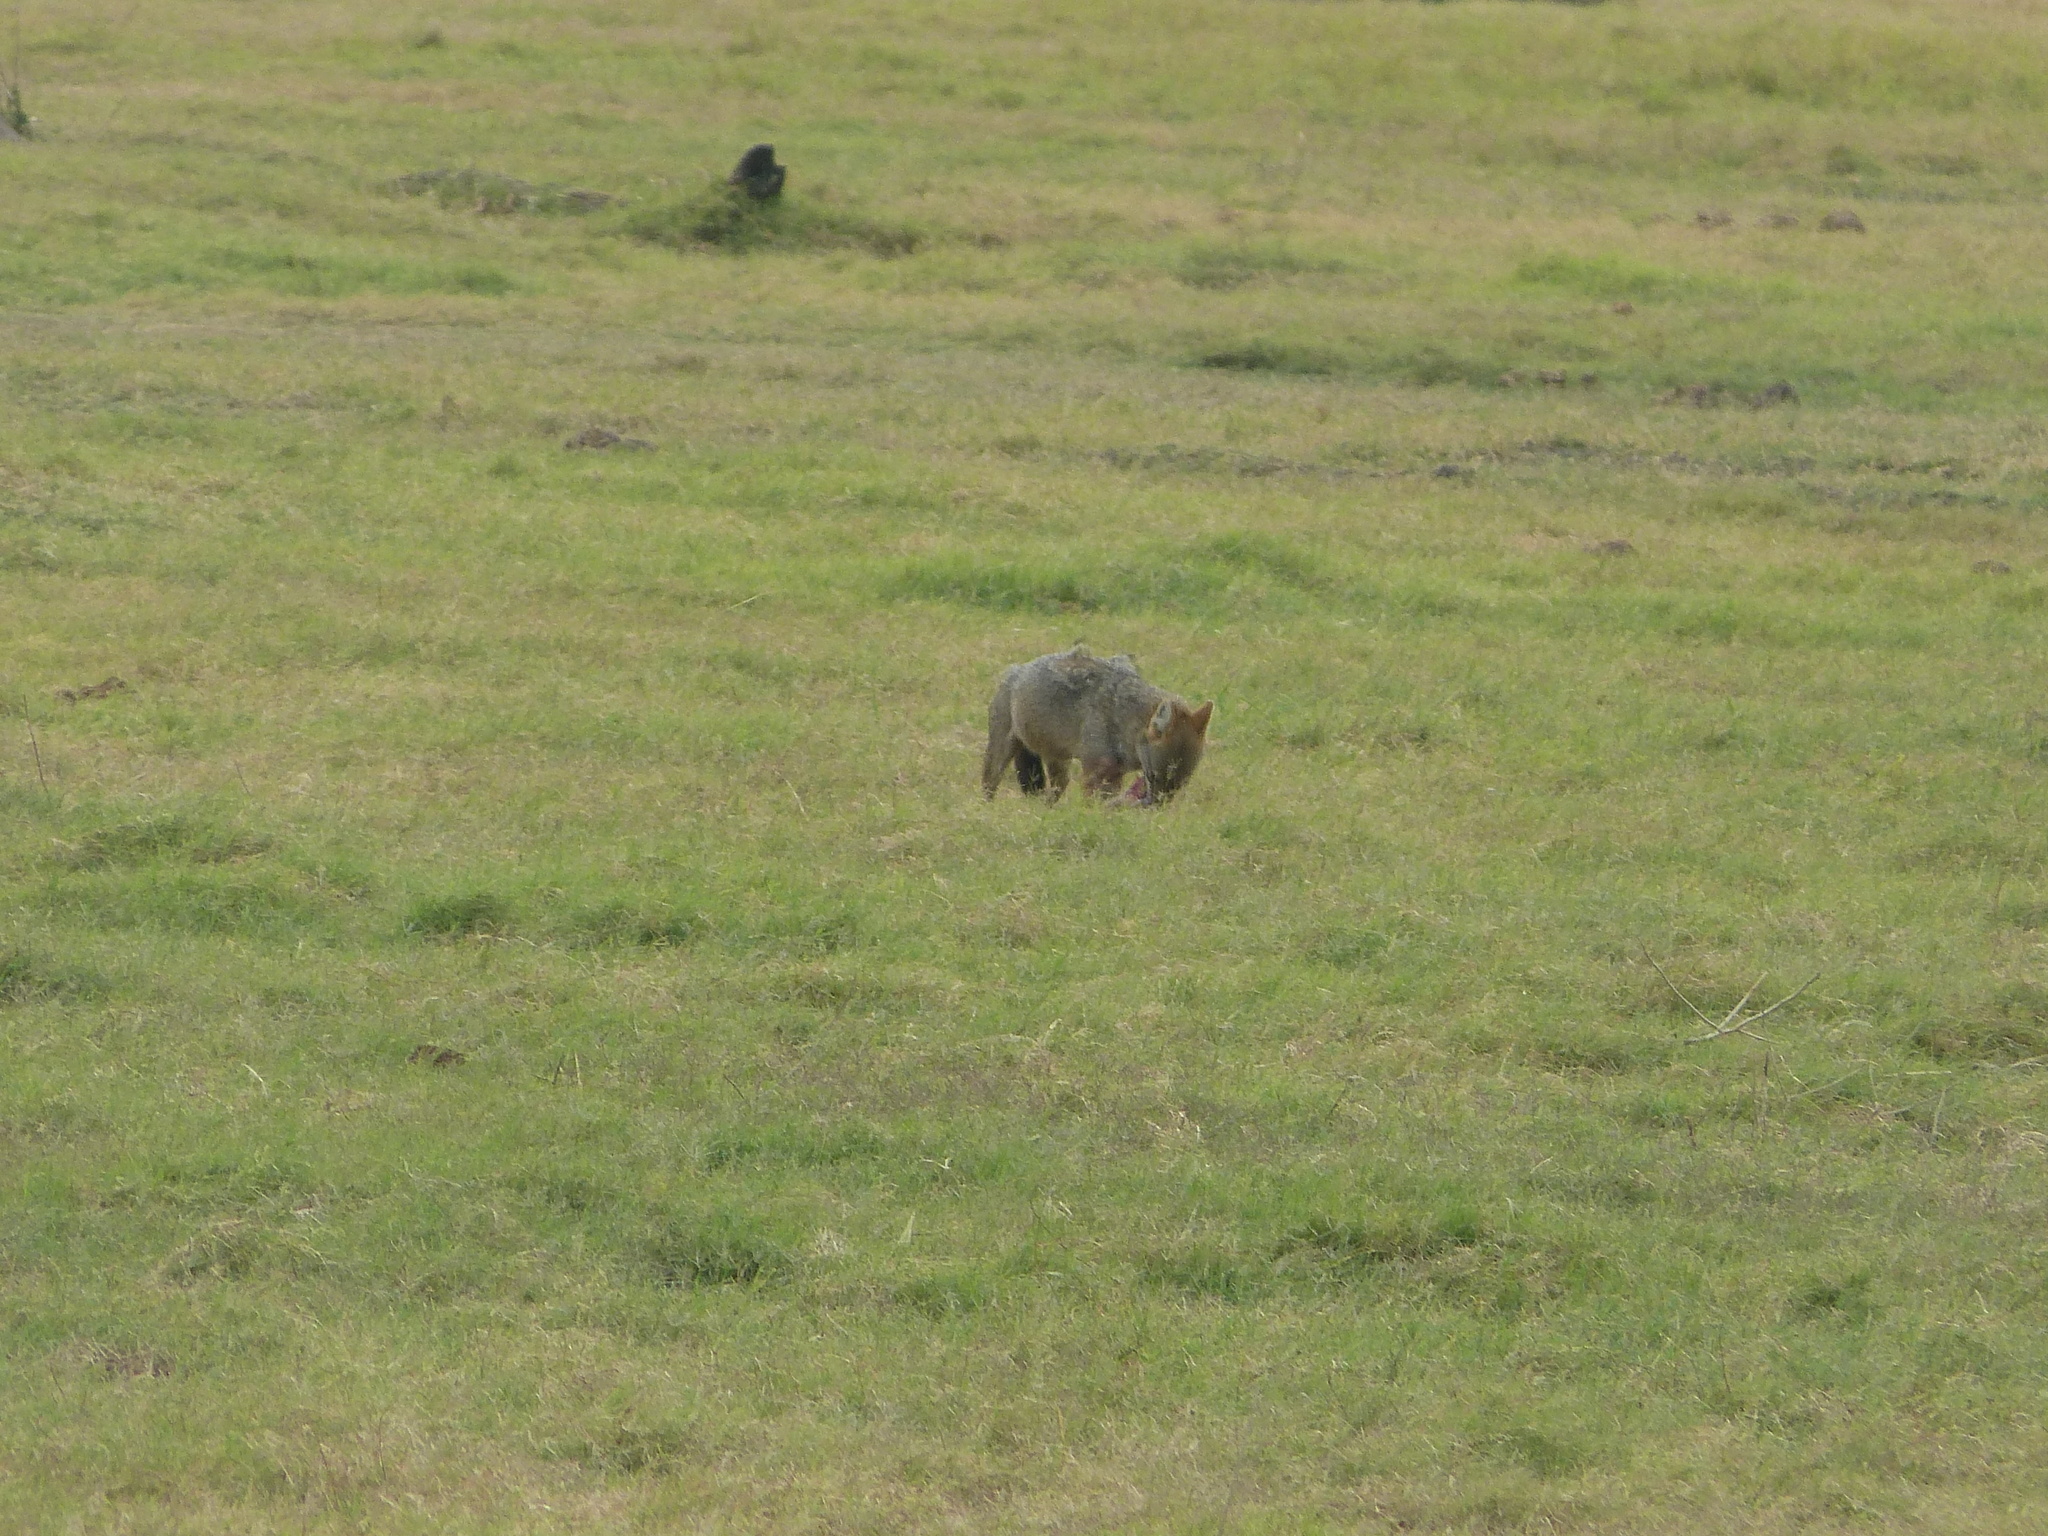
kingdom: Animalia
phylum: Chordata
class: Mammalia
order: Carnivora
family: Canidae
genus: Canis
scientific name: Canis aureus
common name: Golden jackal
